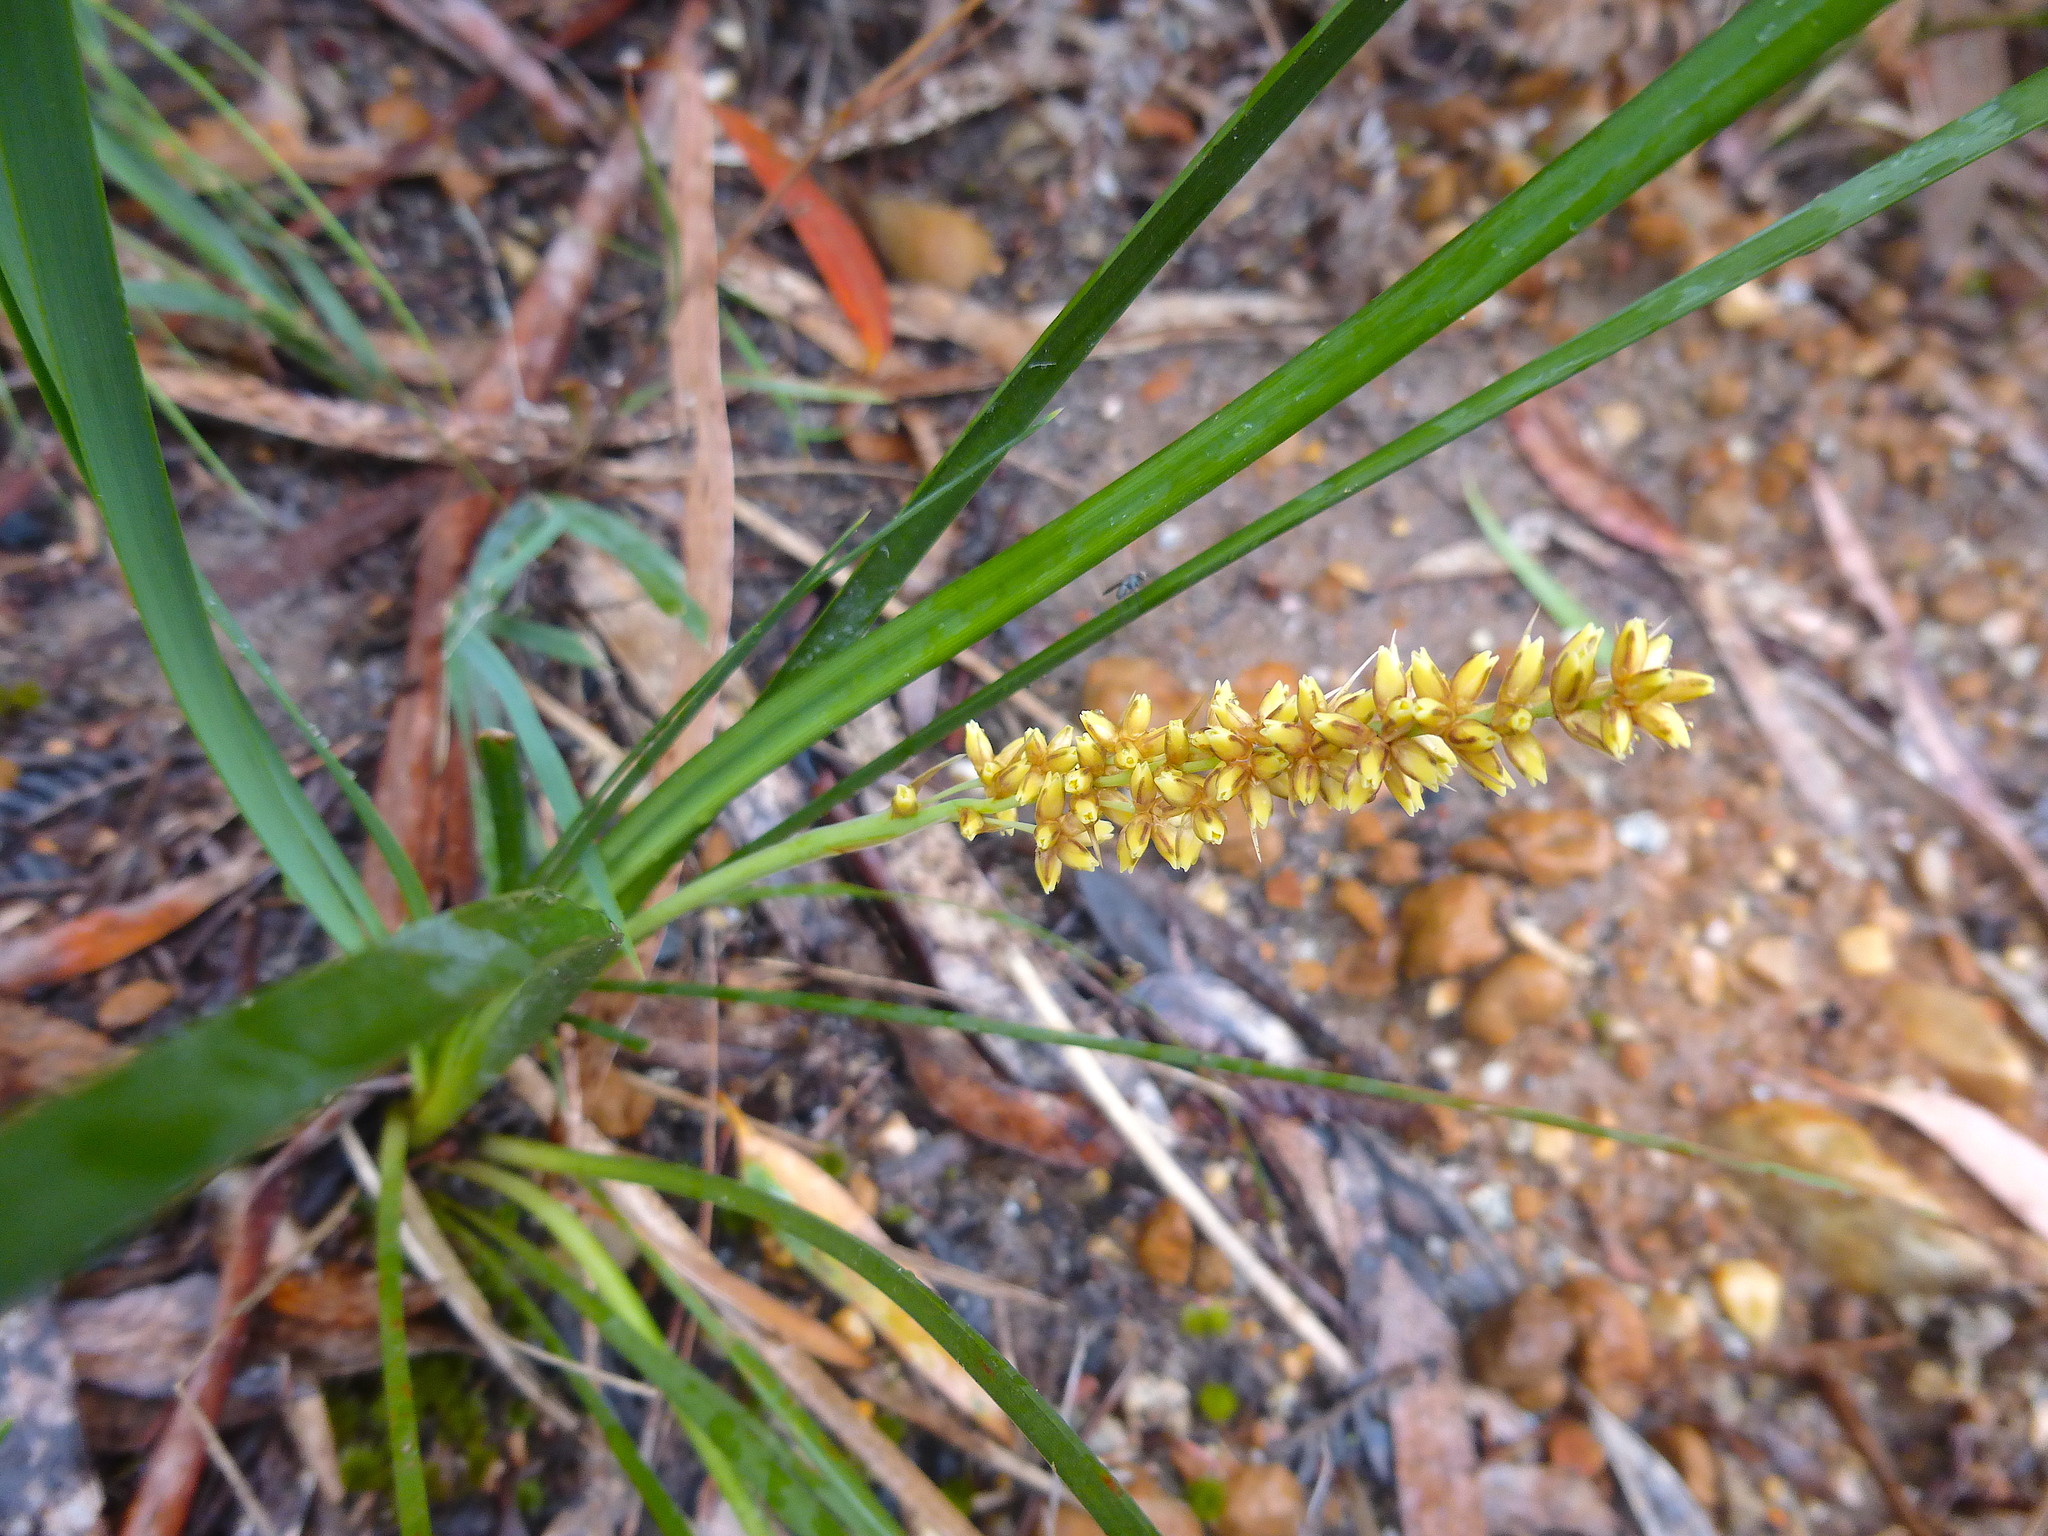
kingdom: Plantae
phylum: Tracheophyta
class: Liliopsida
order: Asparagales
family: Asparagaceae
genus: Lomandra
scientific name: Lomandra longifolia
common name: Longleaf mat-rush
